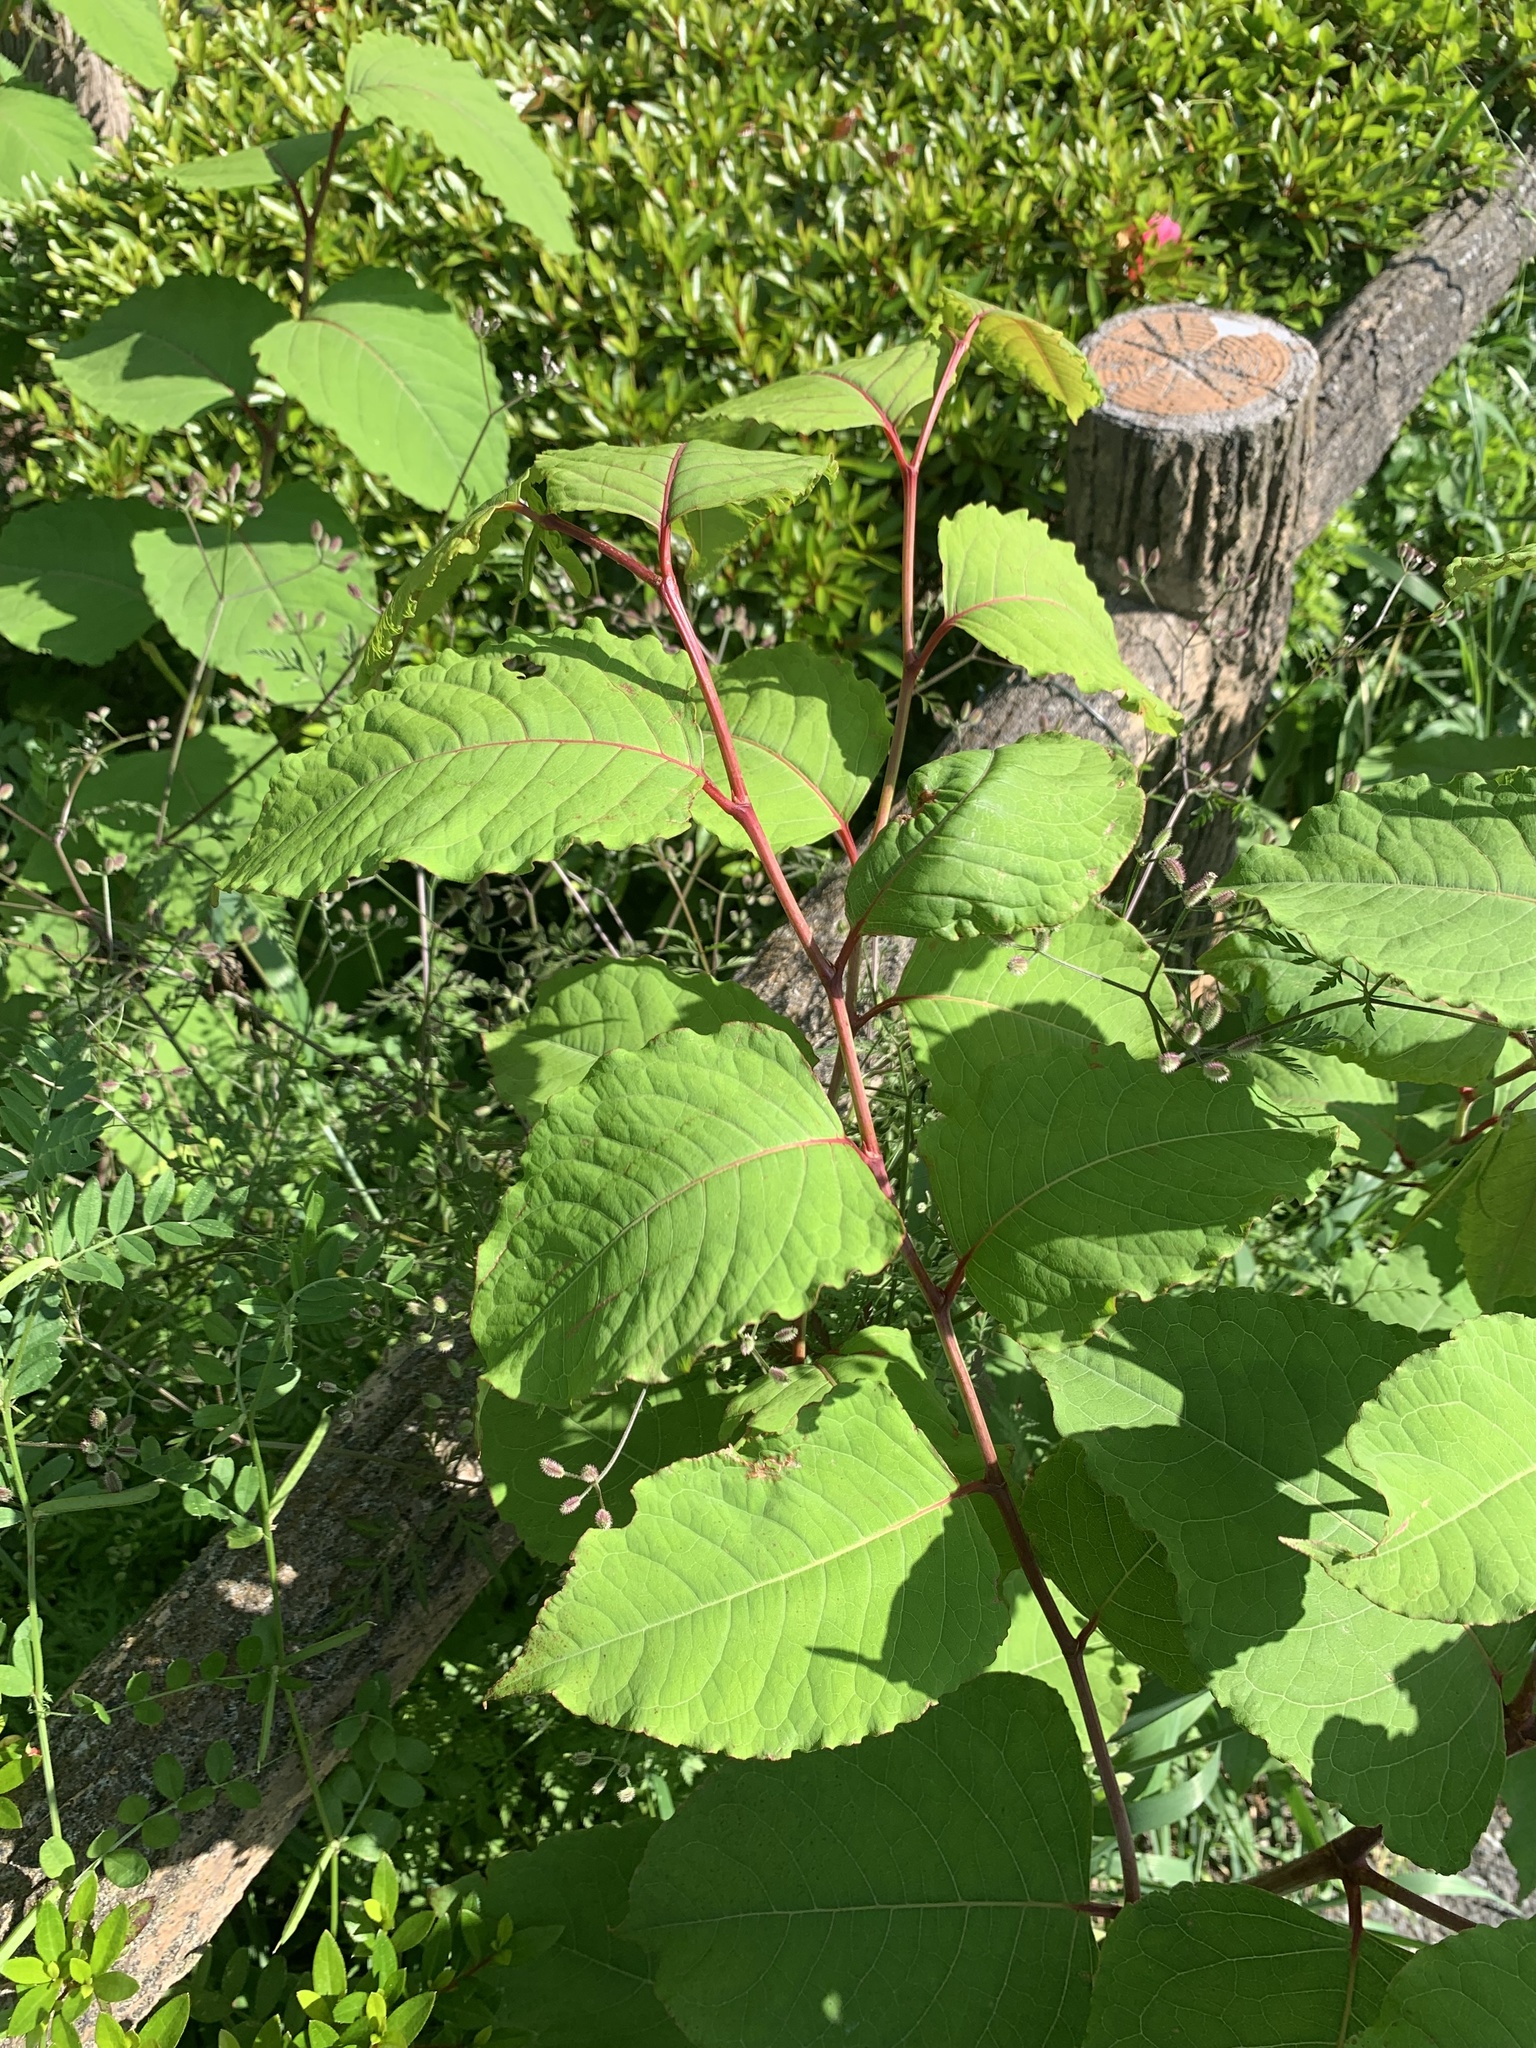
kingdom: Plantae
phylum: Tracheophyta
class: Magnoliopsida
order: Caryophyllales
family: Polygonaceae
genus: Reynoutria
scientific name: Reynoutria japonica
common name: Japanese knotweed
